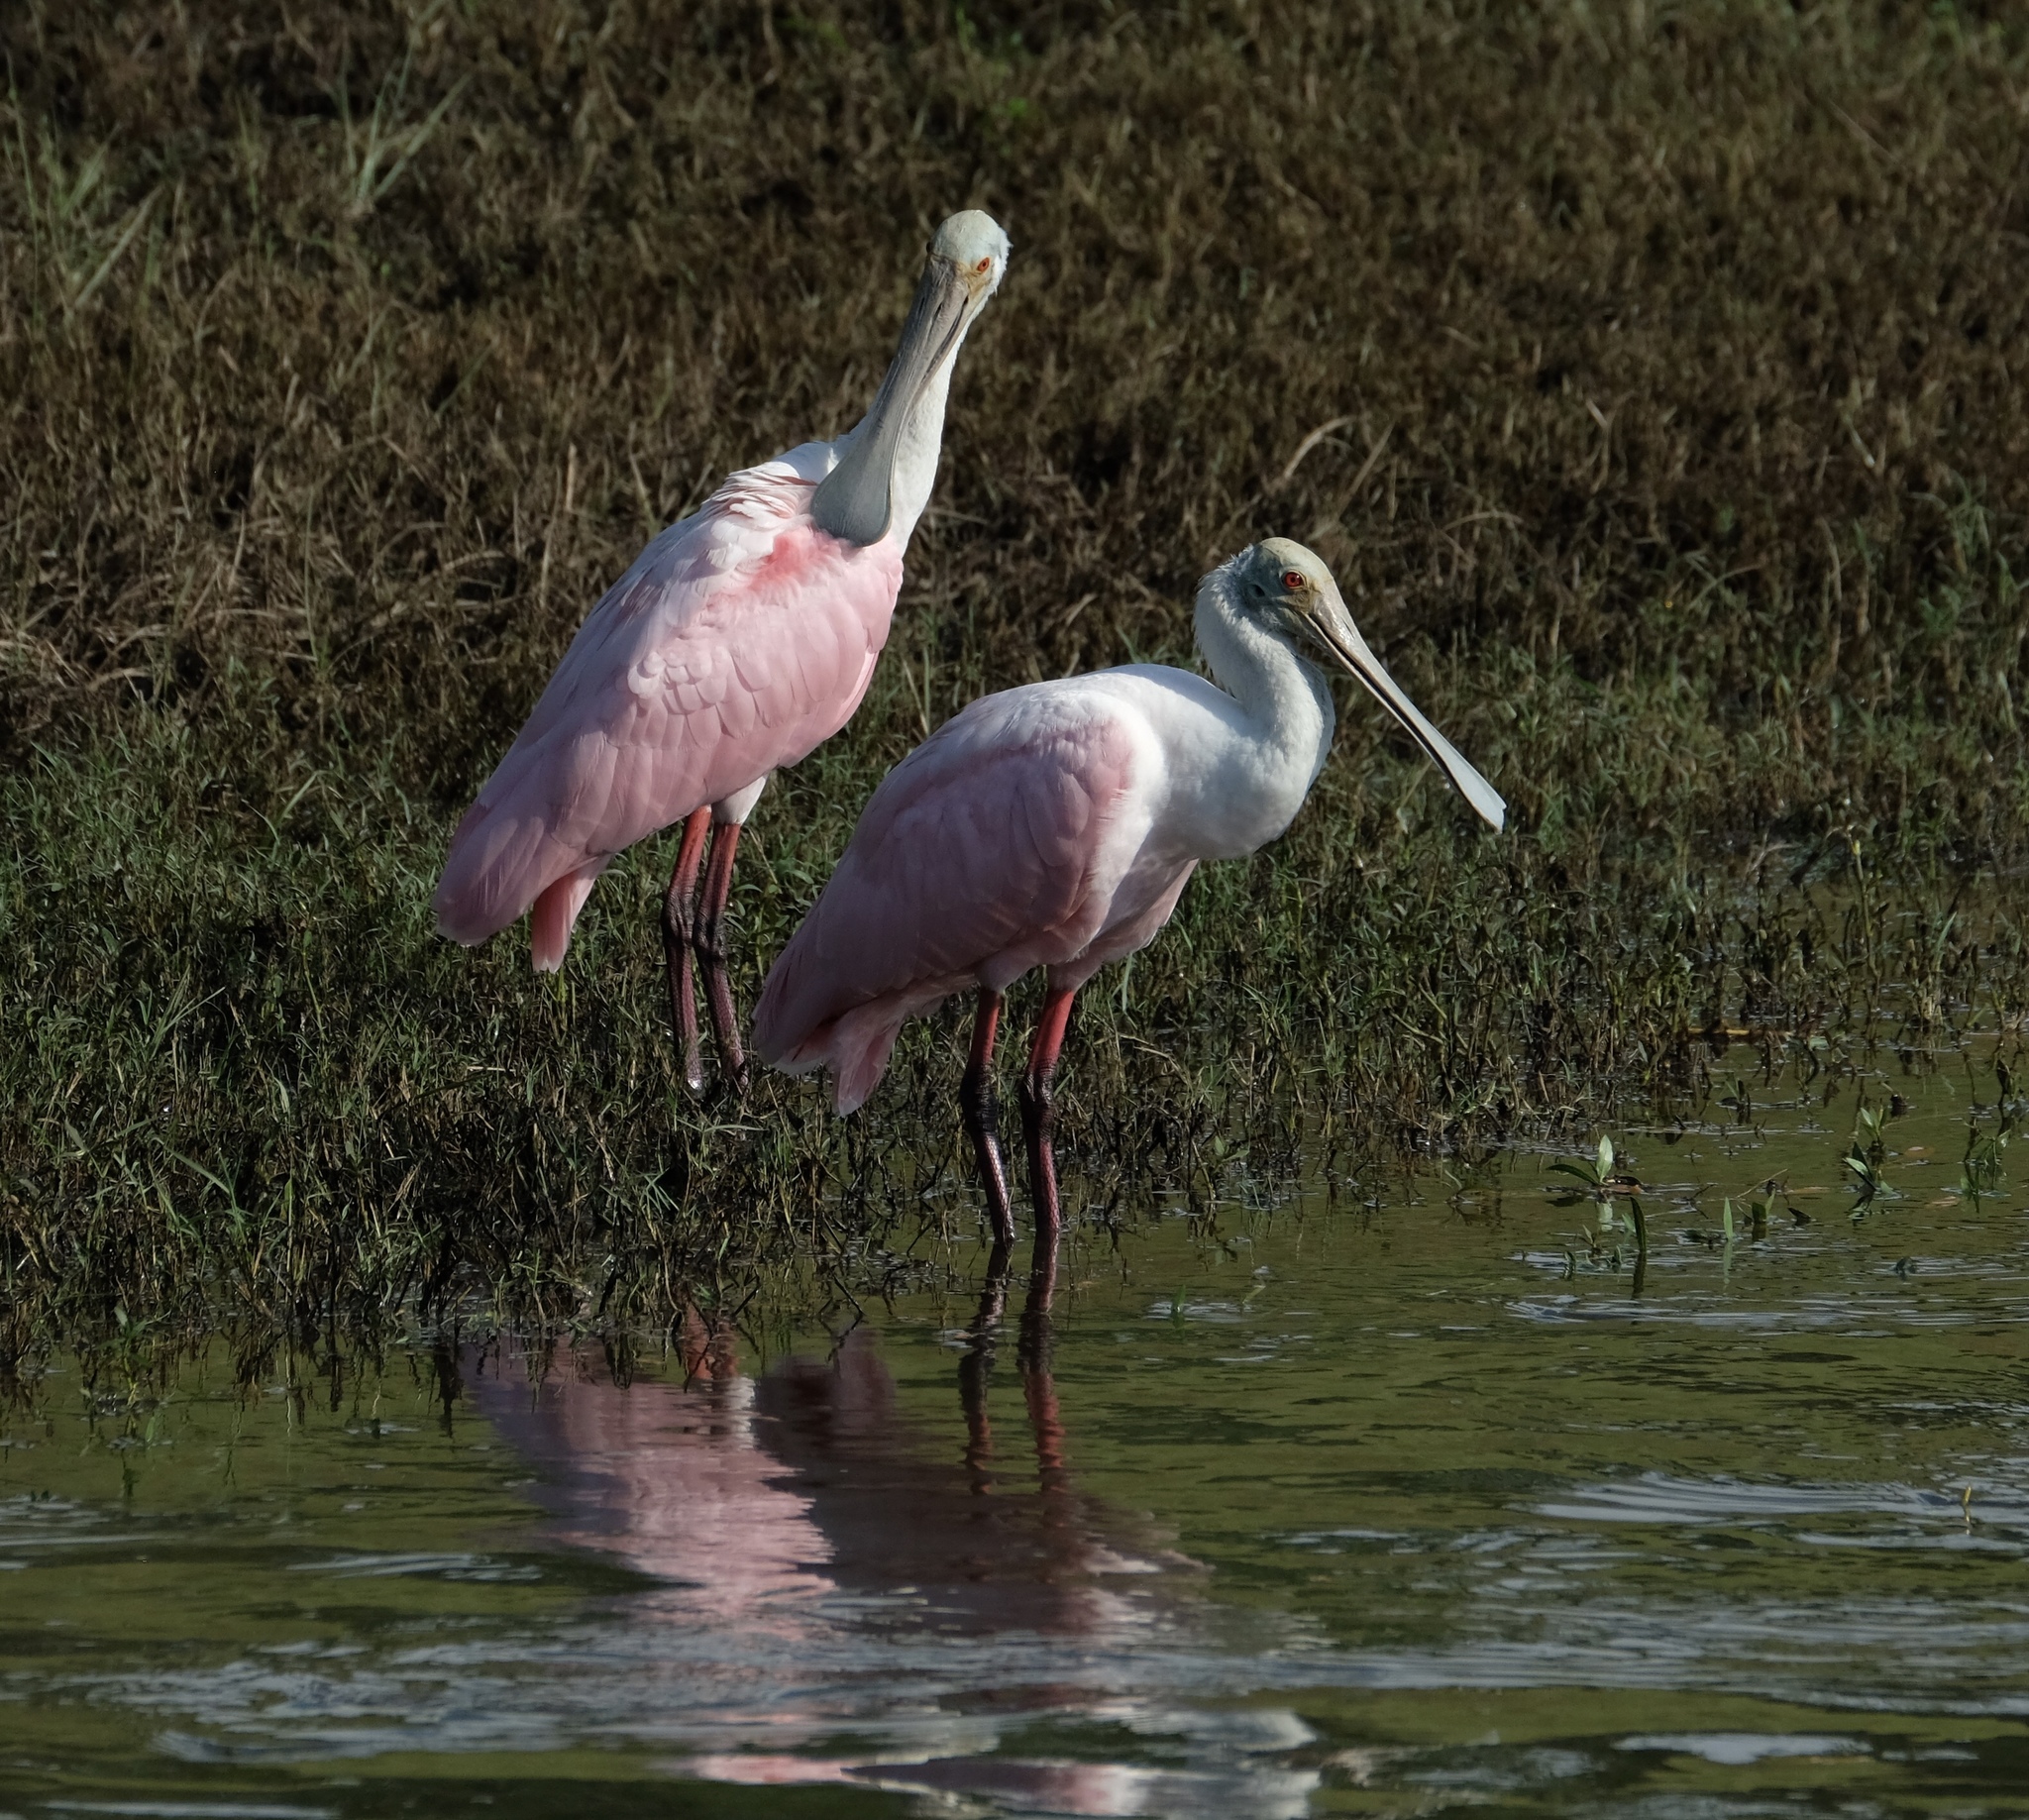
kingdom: Animalia
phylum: Chordata
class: Aves
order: Pelecaniformes
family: Threskiornithidae
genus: Platalea
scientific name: Platalea ajaja
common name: Roseate spoonbill
